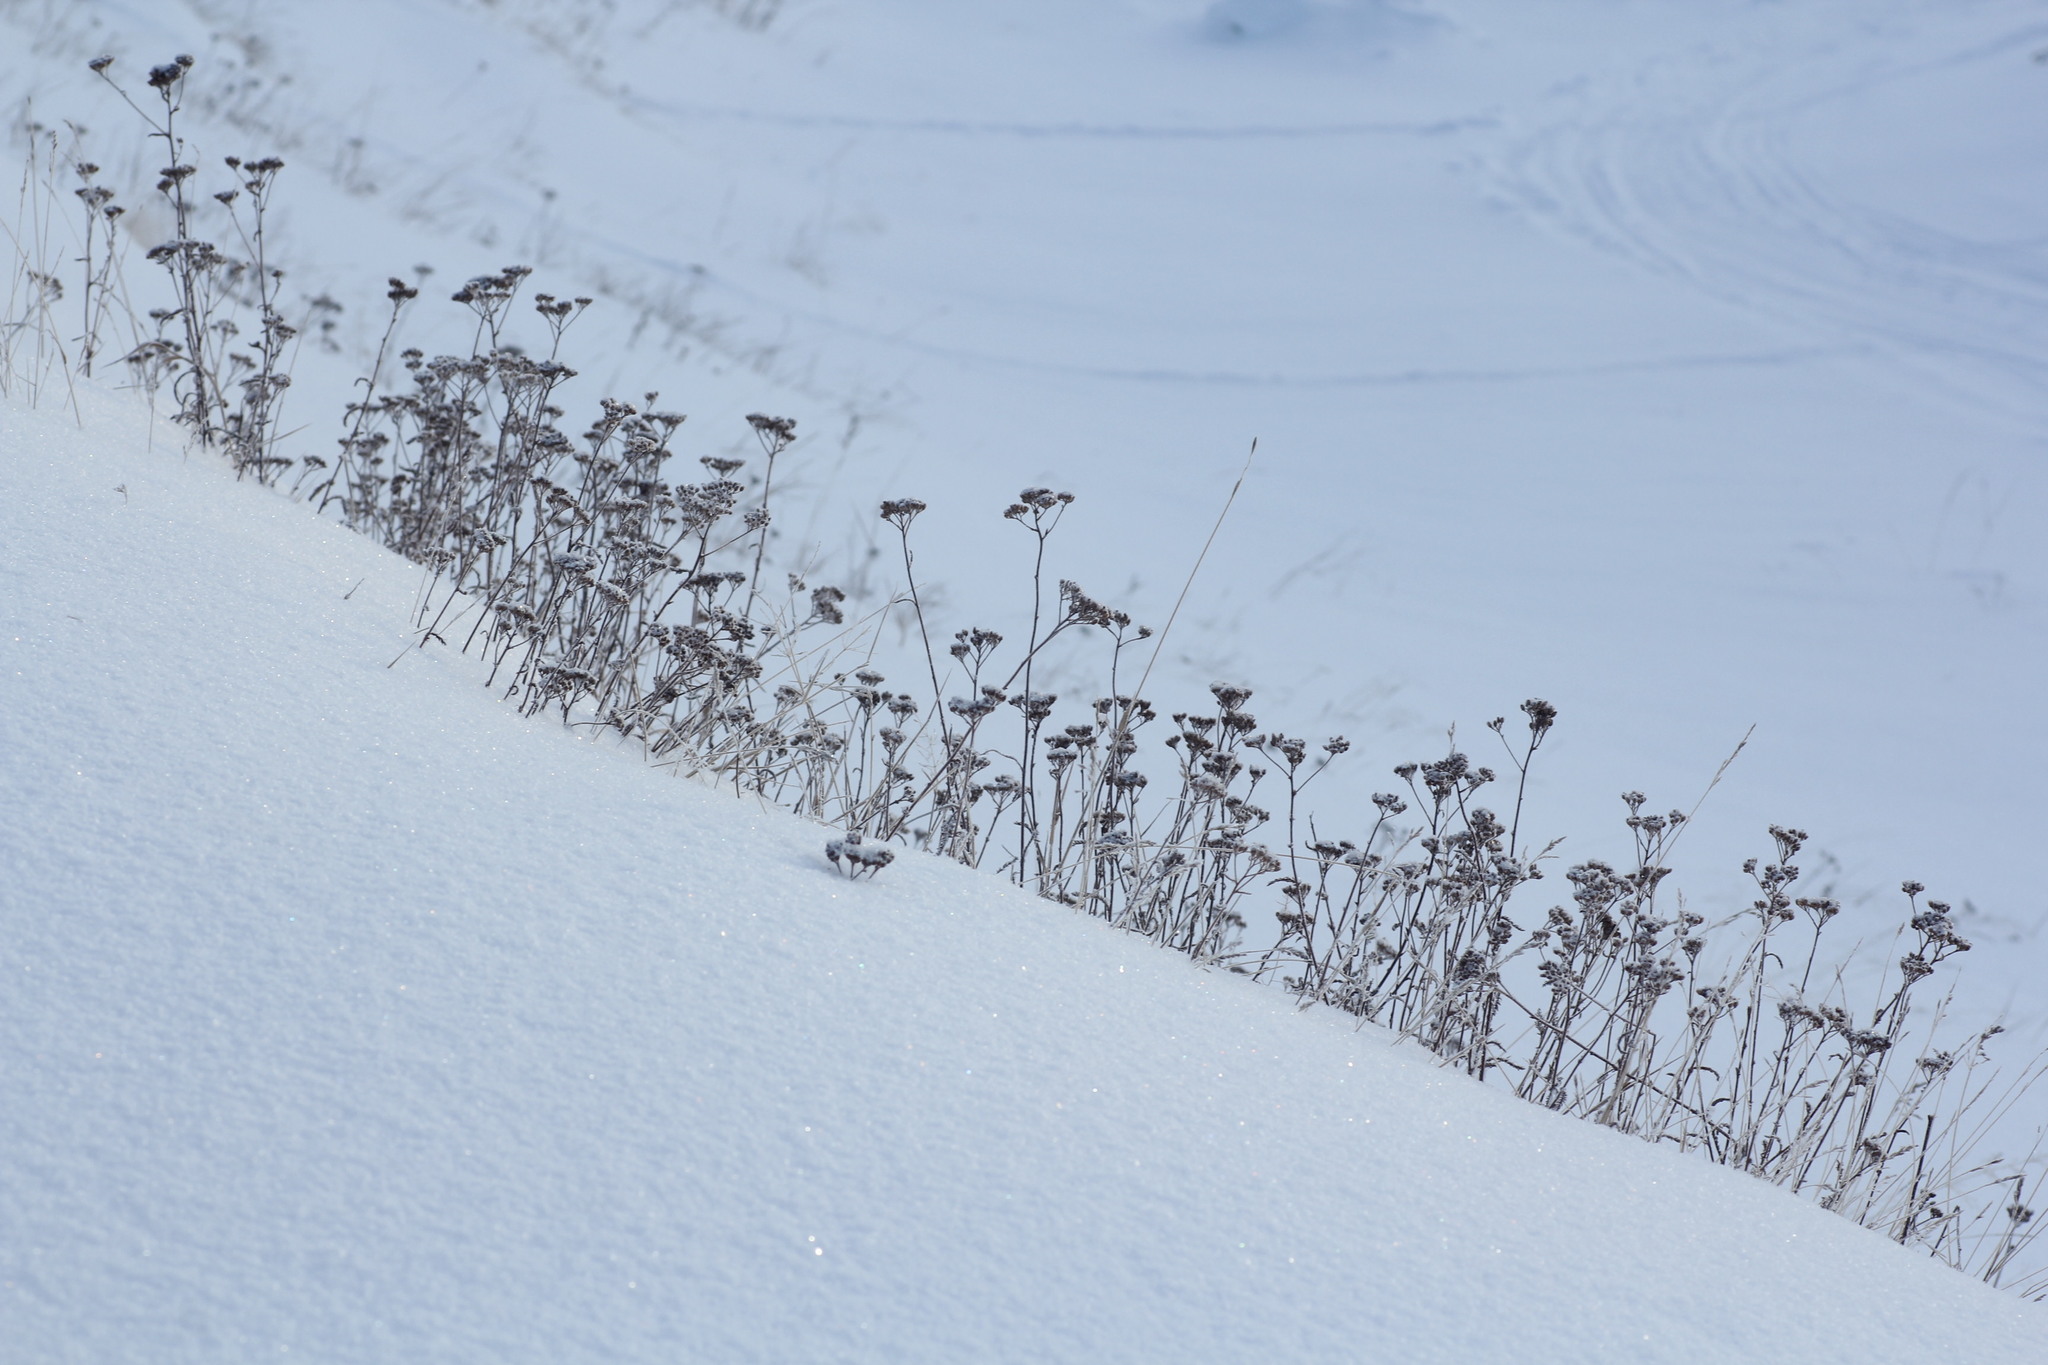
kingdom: Plantae
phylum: Tracheophyta
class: Magnoliopsida
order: Asterales
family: Asteraceae
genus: Achillea
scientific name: Achillea asiatica
